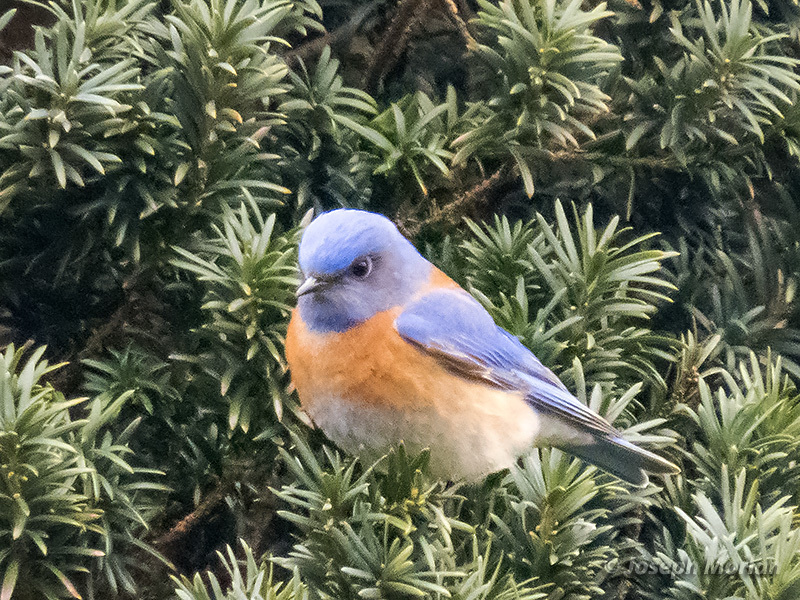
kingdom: Animalia
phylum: Chordata
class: Aves
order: Passeriformes
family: Turdidae
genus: Sialia
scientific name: Sialia mexicana
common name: Western bluebird
